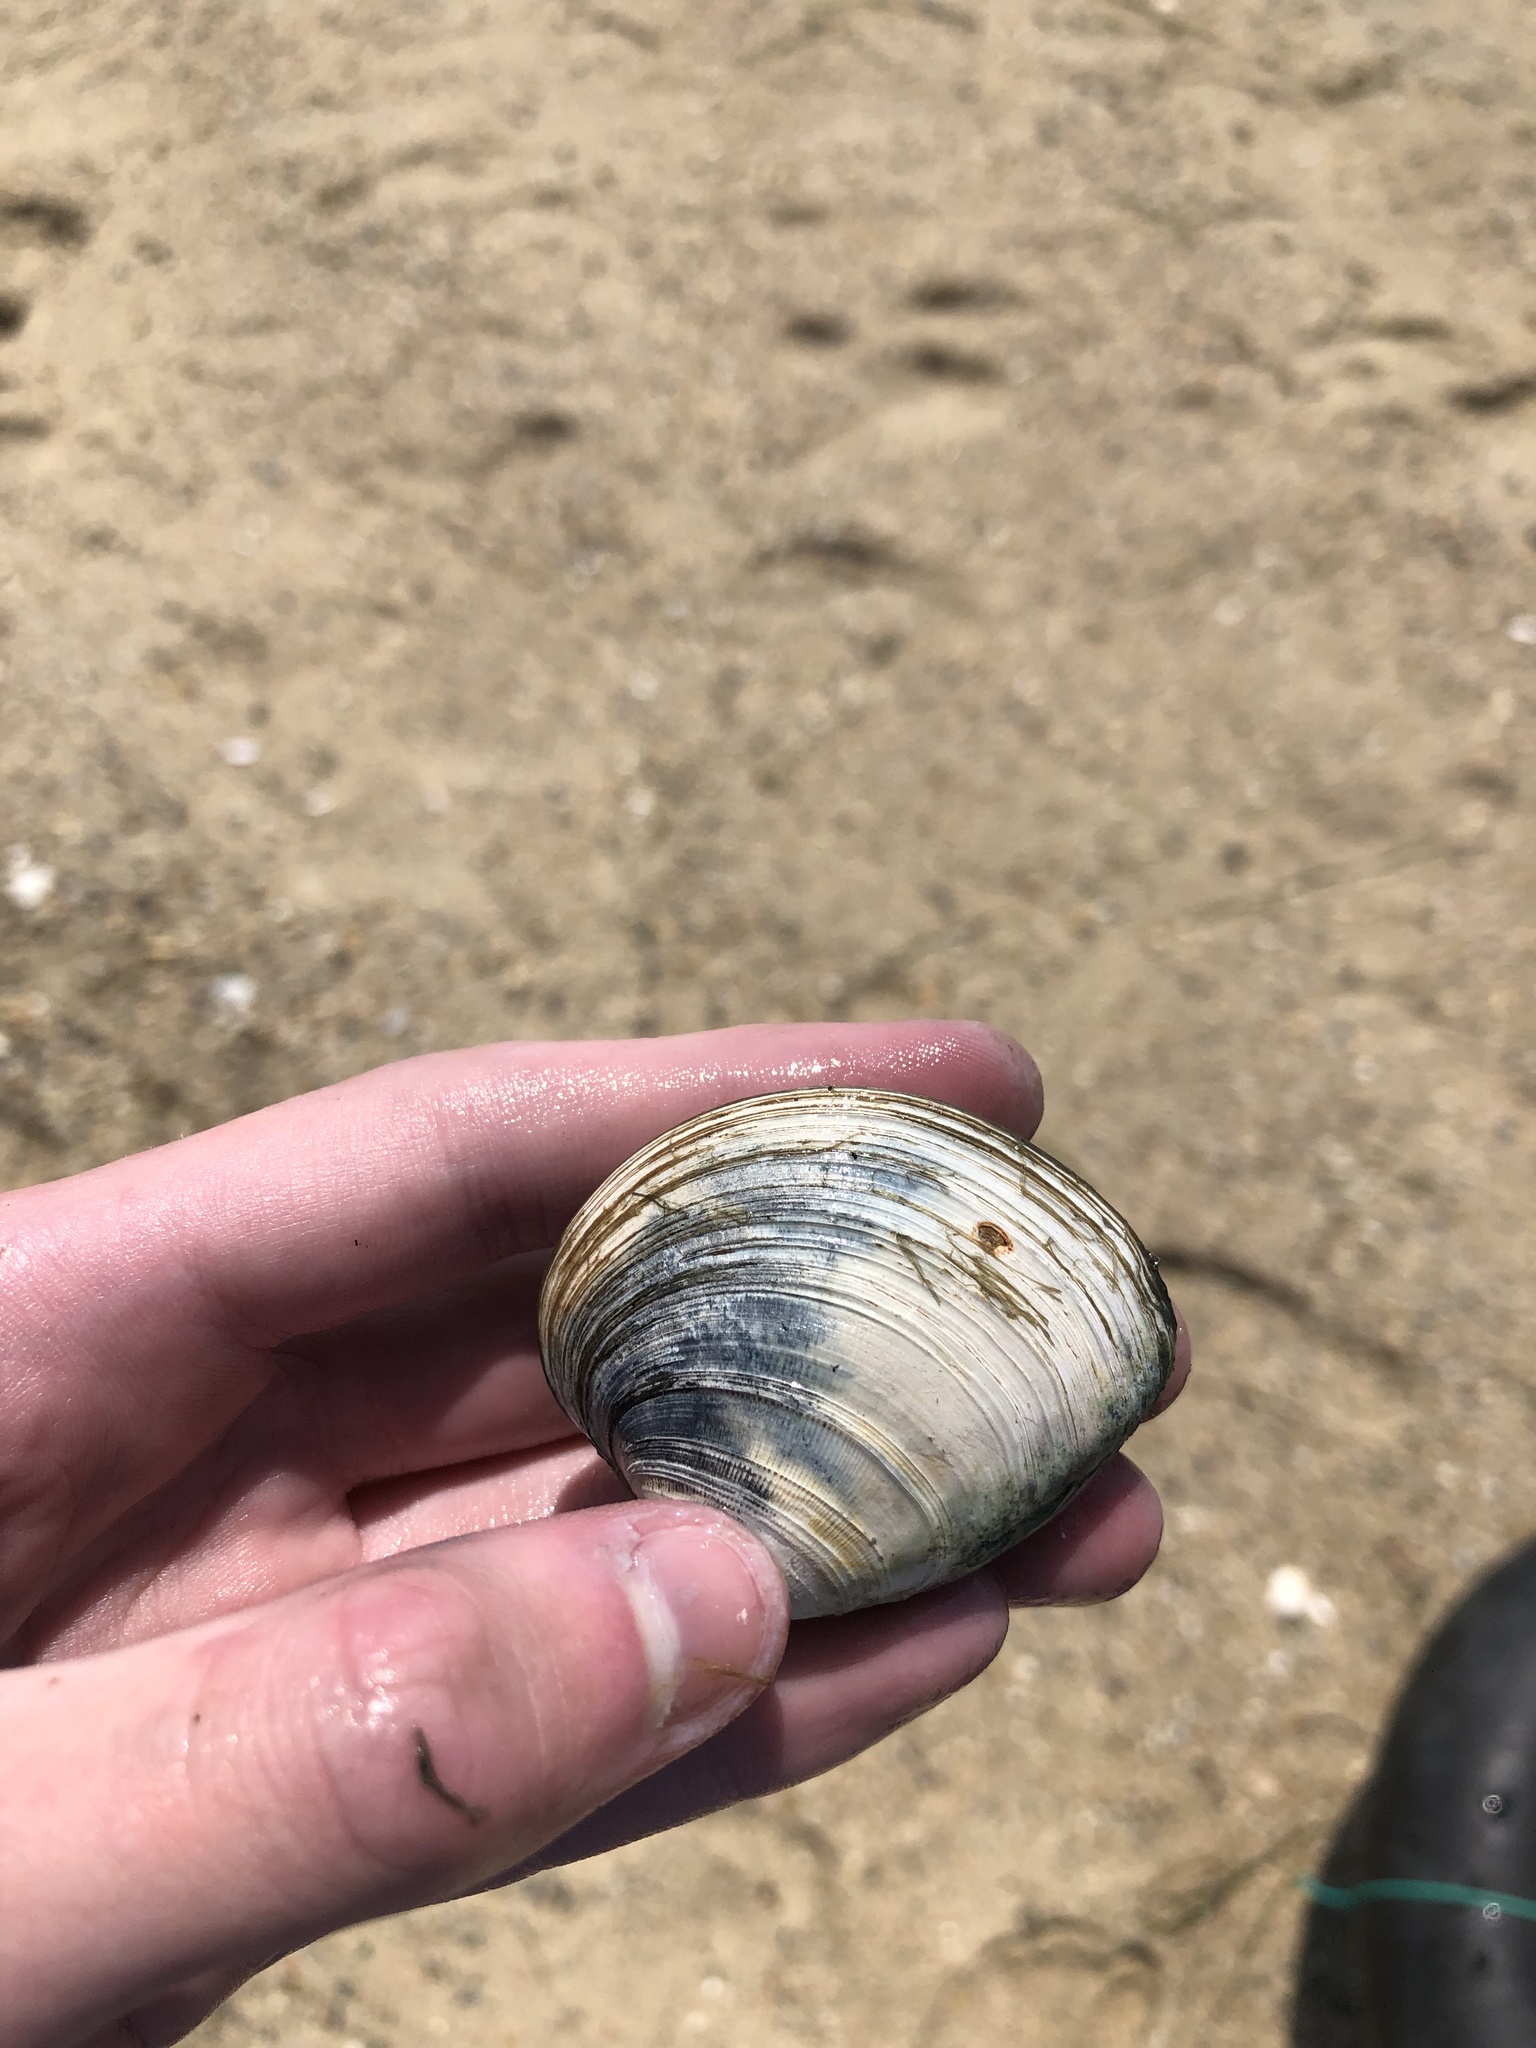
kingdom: Animalia
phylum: Mollusca
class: Bivalvia
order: Venerida
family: Veneridae
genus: Mercenaria
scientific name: Mercenaria mercenaria
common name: American hard-shelled clam
